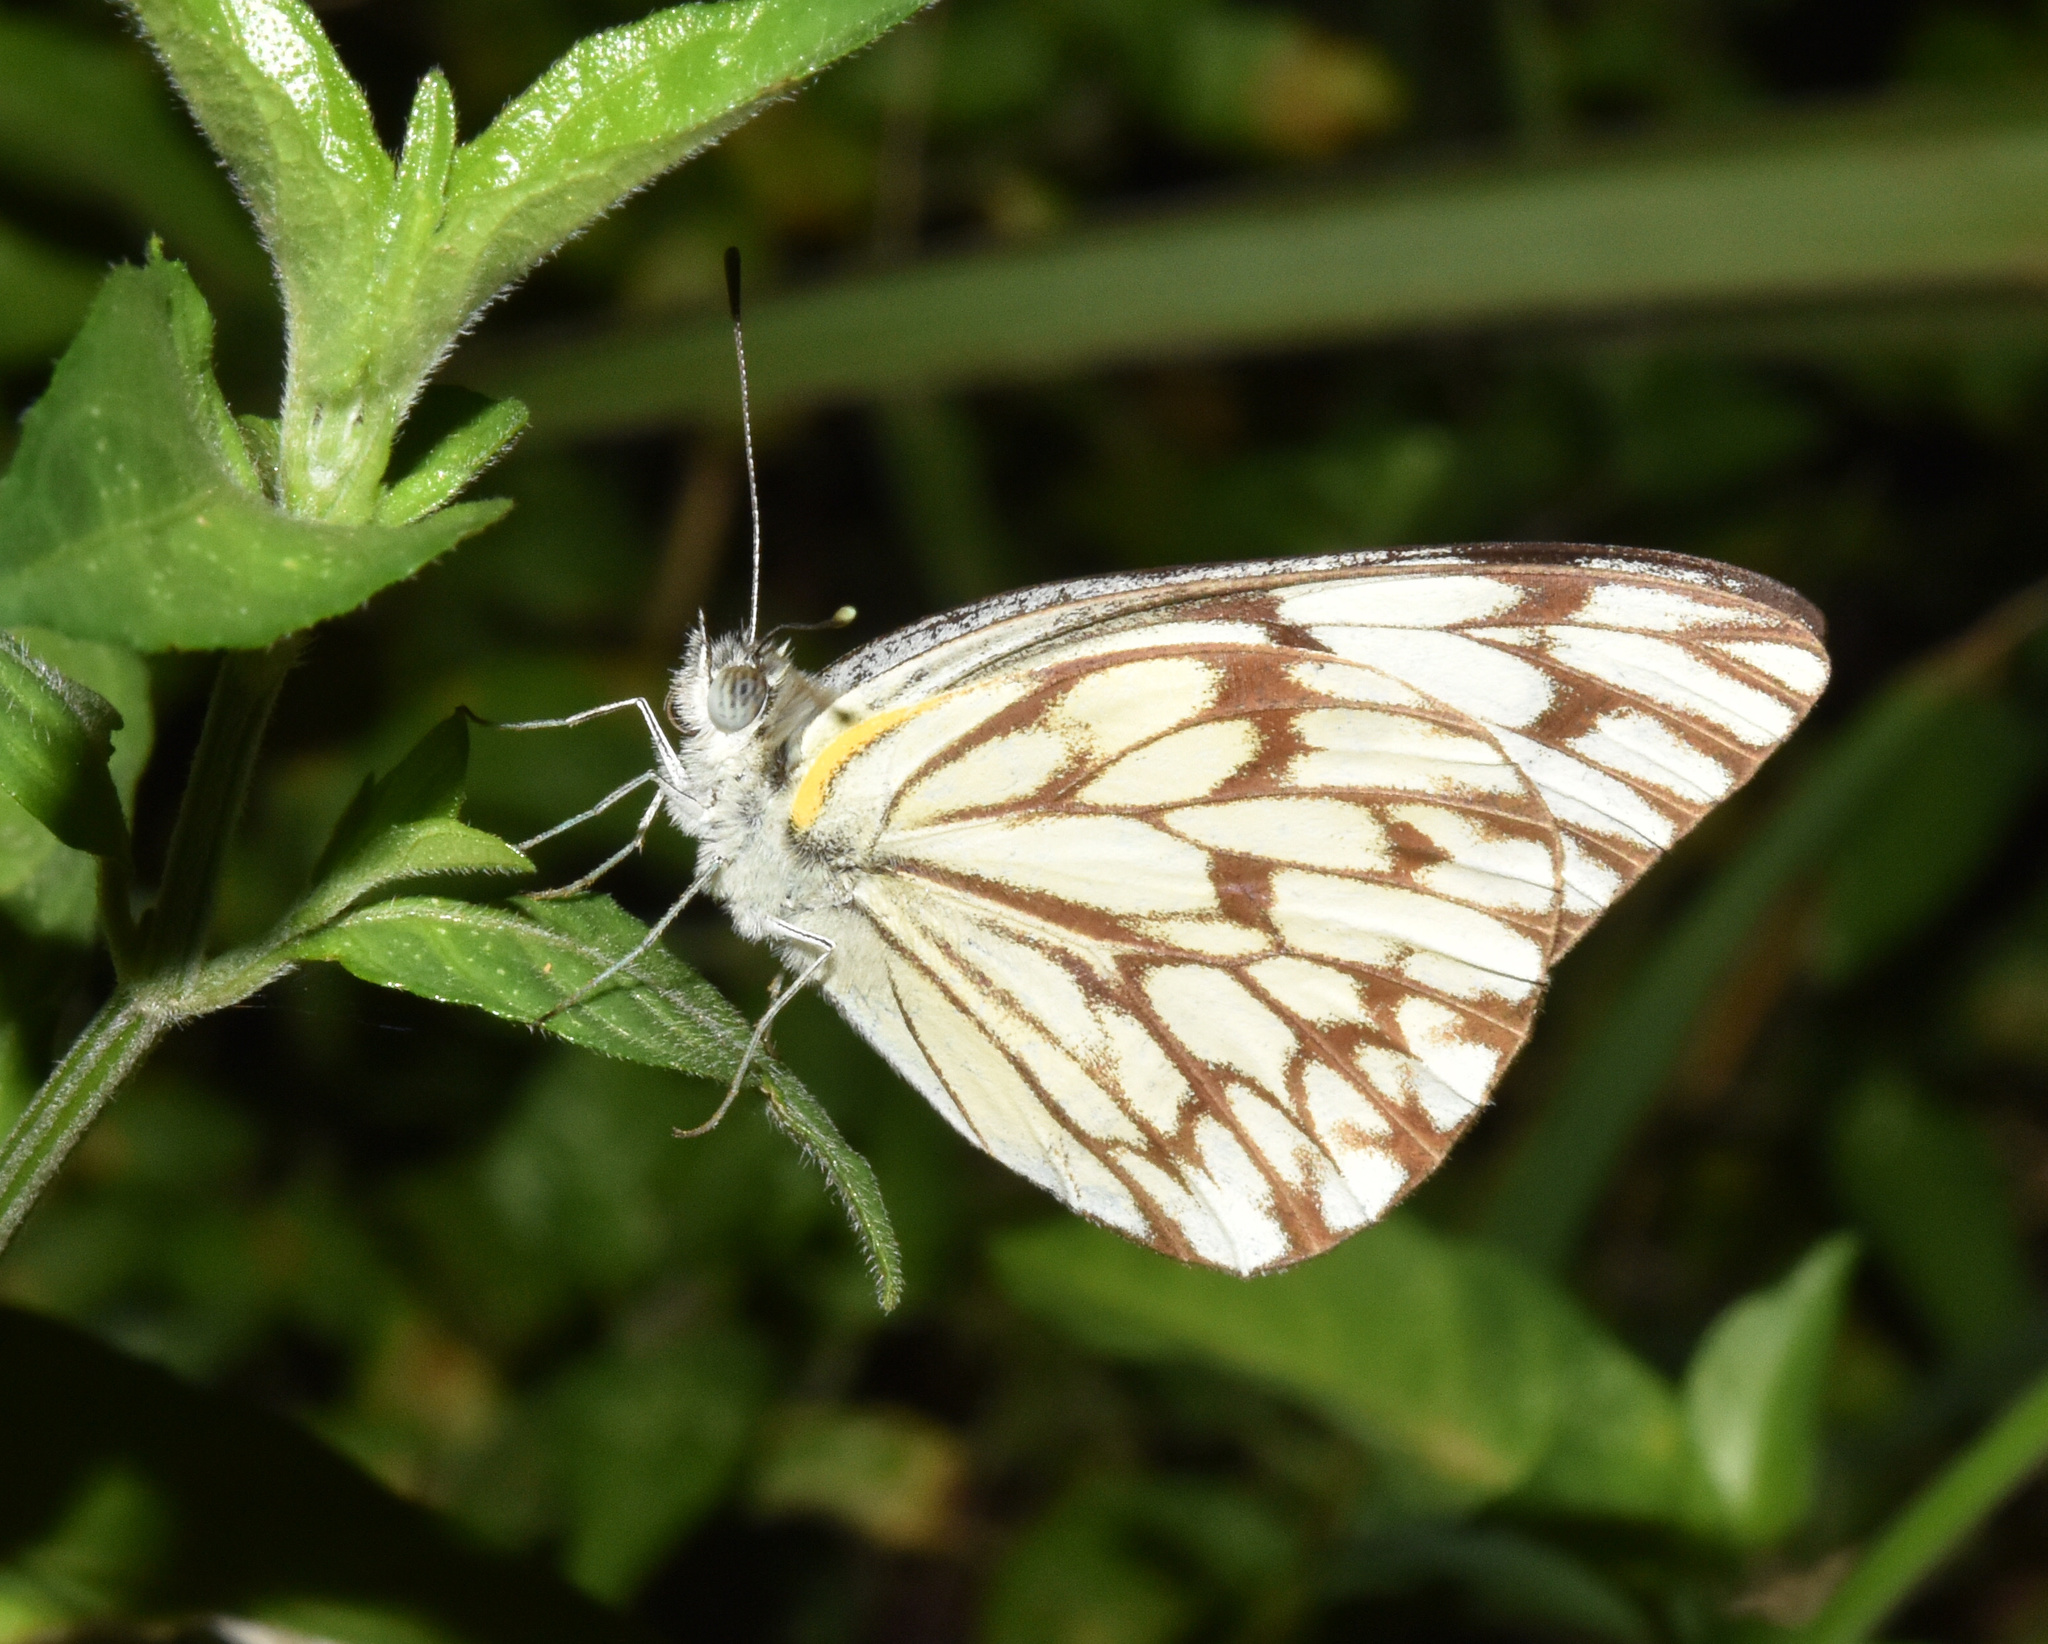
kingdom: Animalia
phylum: Arthropoda
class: Insecta
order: Lepidoptera
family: Pieridae
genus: Belenois
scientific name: Belenois gidica
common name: Pointed caper white
